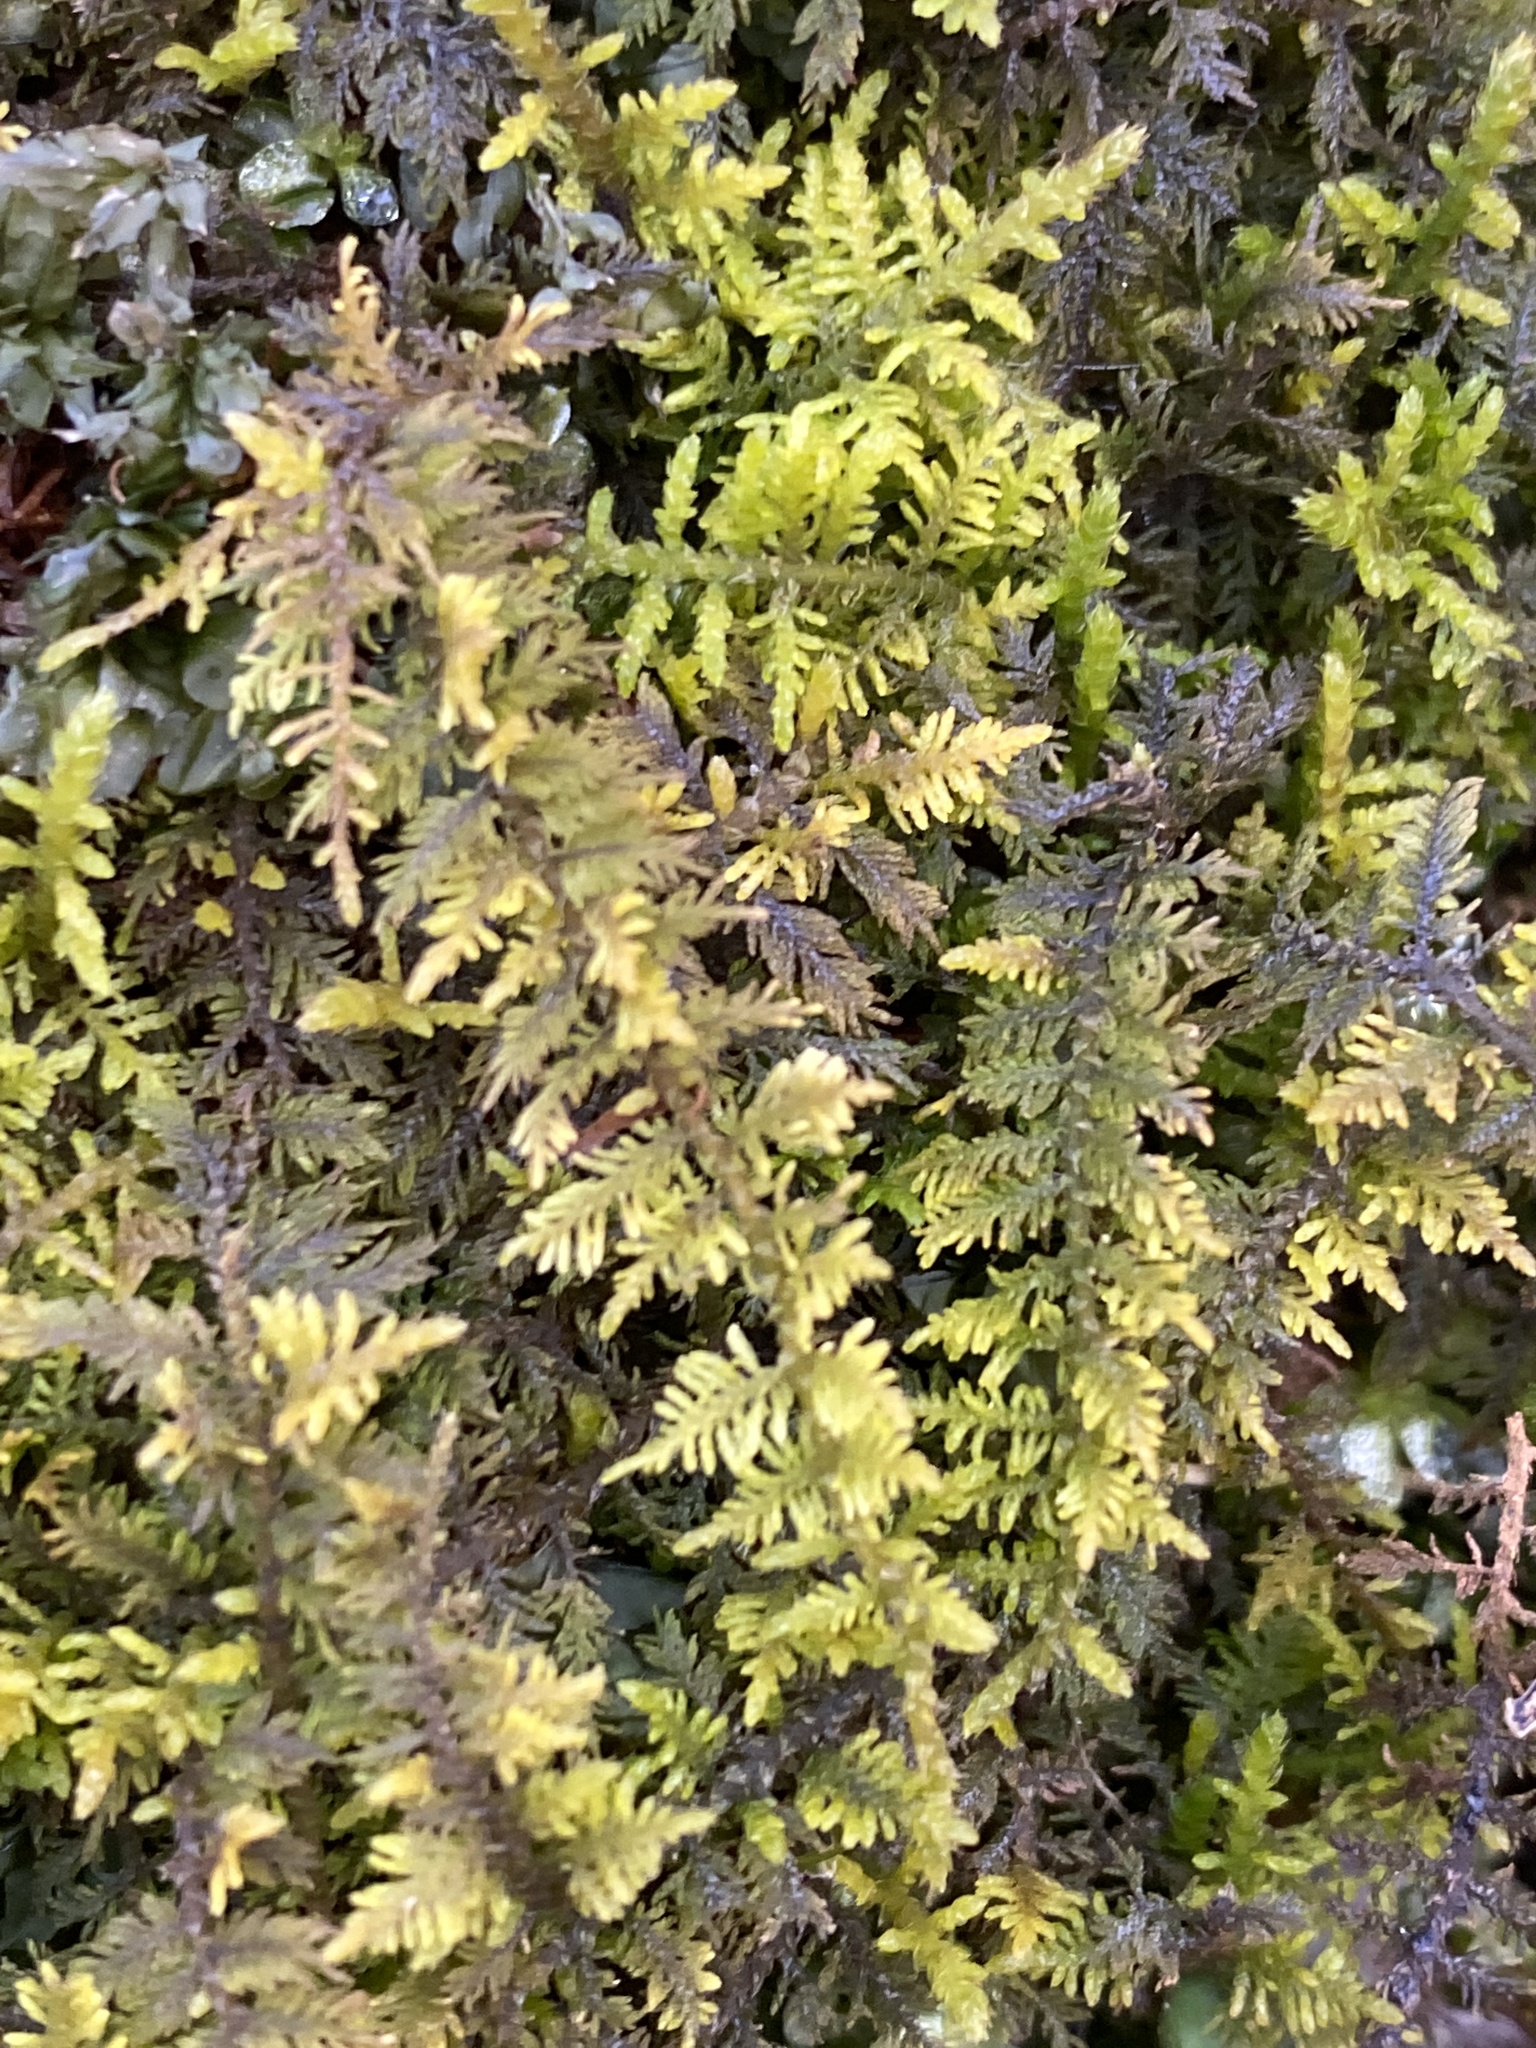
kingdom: Plantae
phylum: Bryophyta
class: Bryopsida
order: Hypnales
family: Thuidiaceae
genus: Thuidium
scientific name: Thuidium delicatulum
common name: Delicate fern moss
